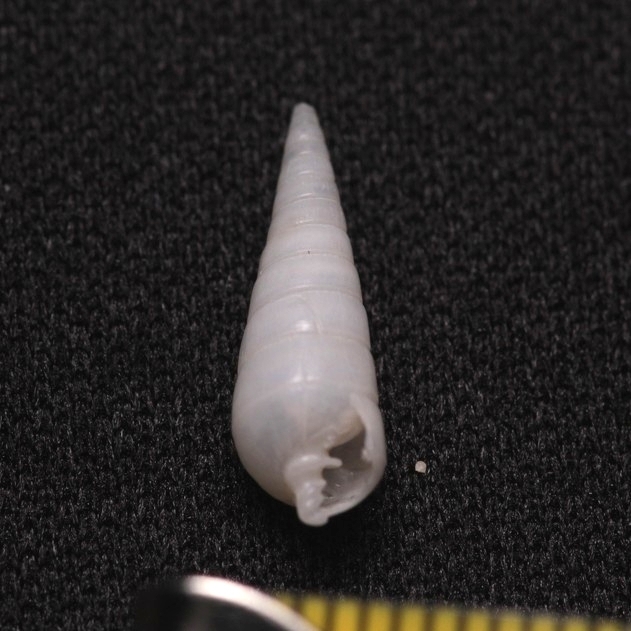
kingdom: Animalia
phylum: Mollusca
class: Gastropoda
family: Pyramidellidae
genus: Longchaeus
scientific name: Longchaeus suturalis
